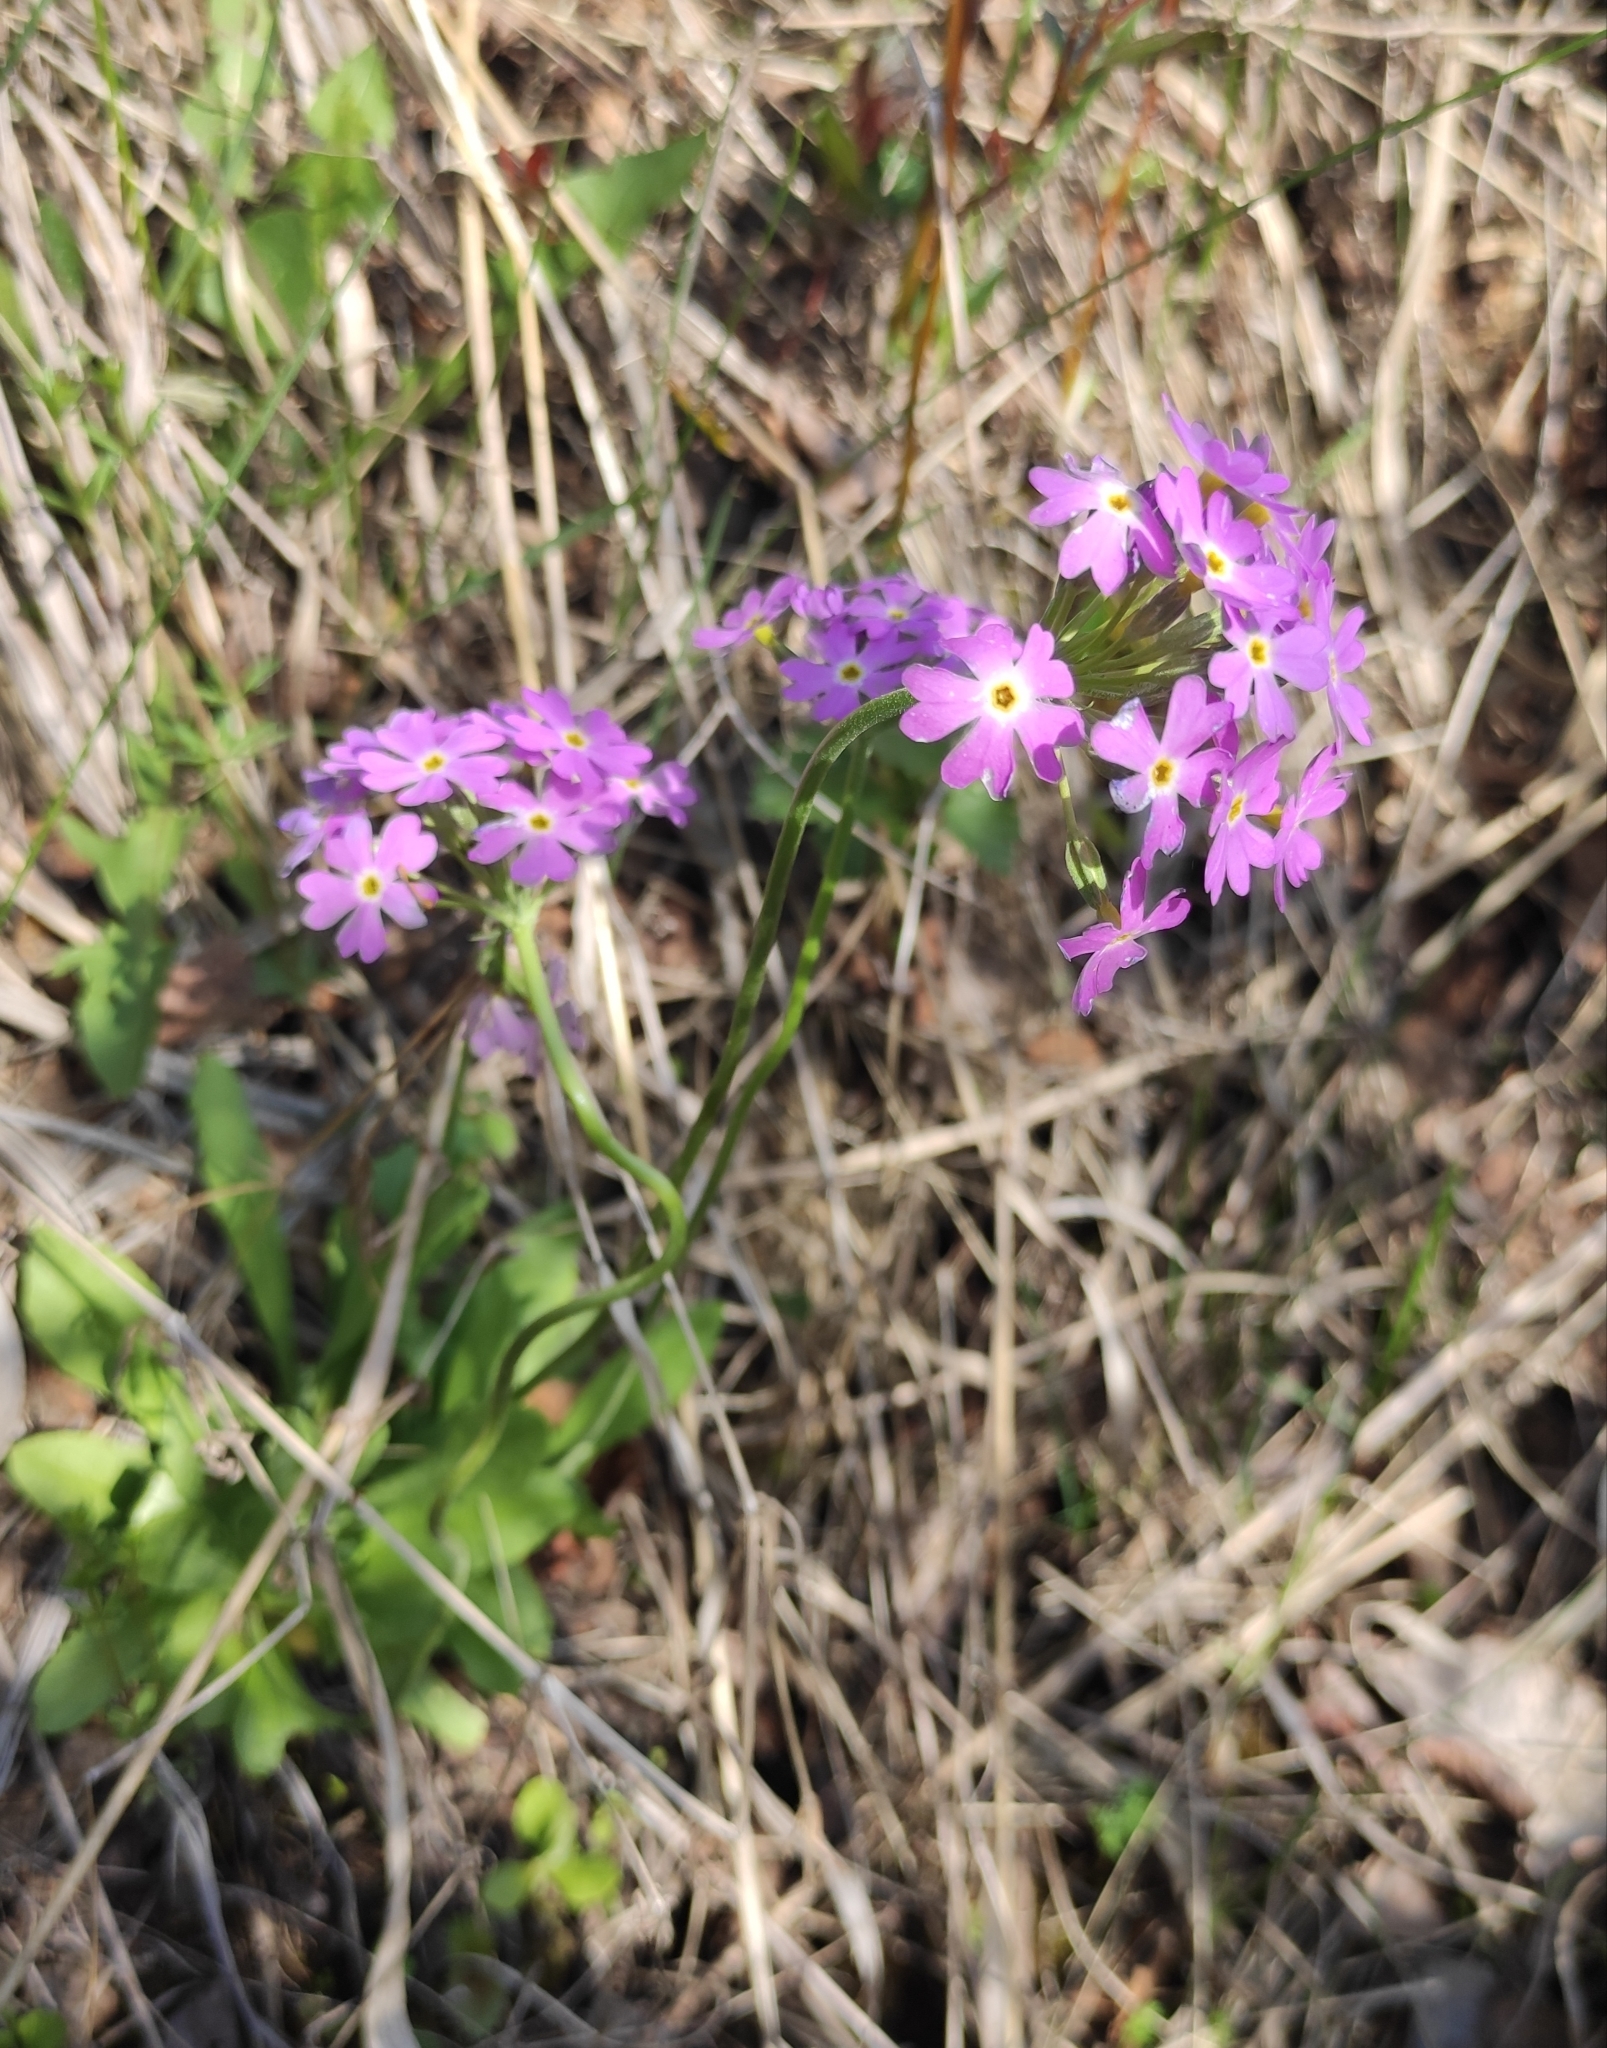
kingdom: Plantae
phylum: Tracheophyta
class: Magnoliopsida
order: Ericales
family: Primulaceae
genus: Primula
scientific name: Primula farinosa
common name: Bird's-eye primrose
